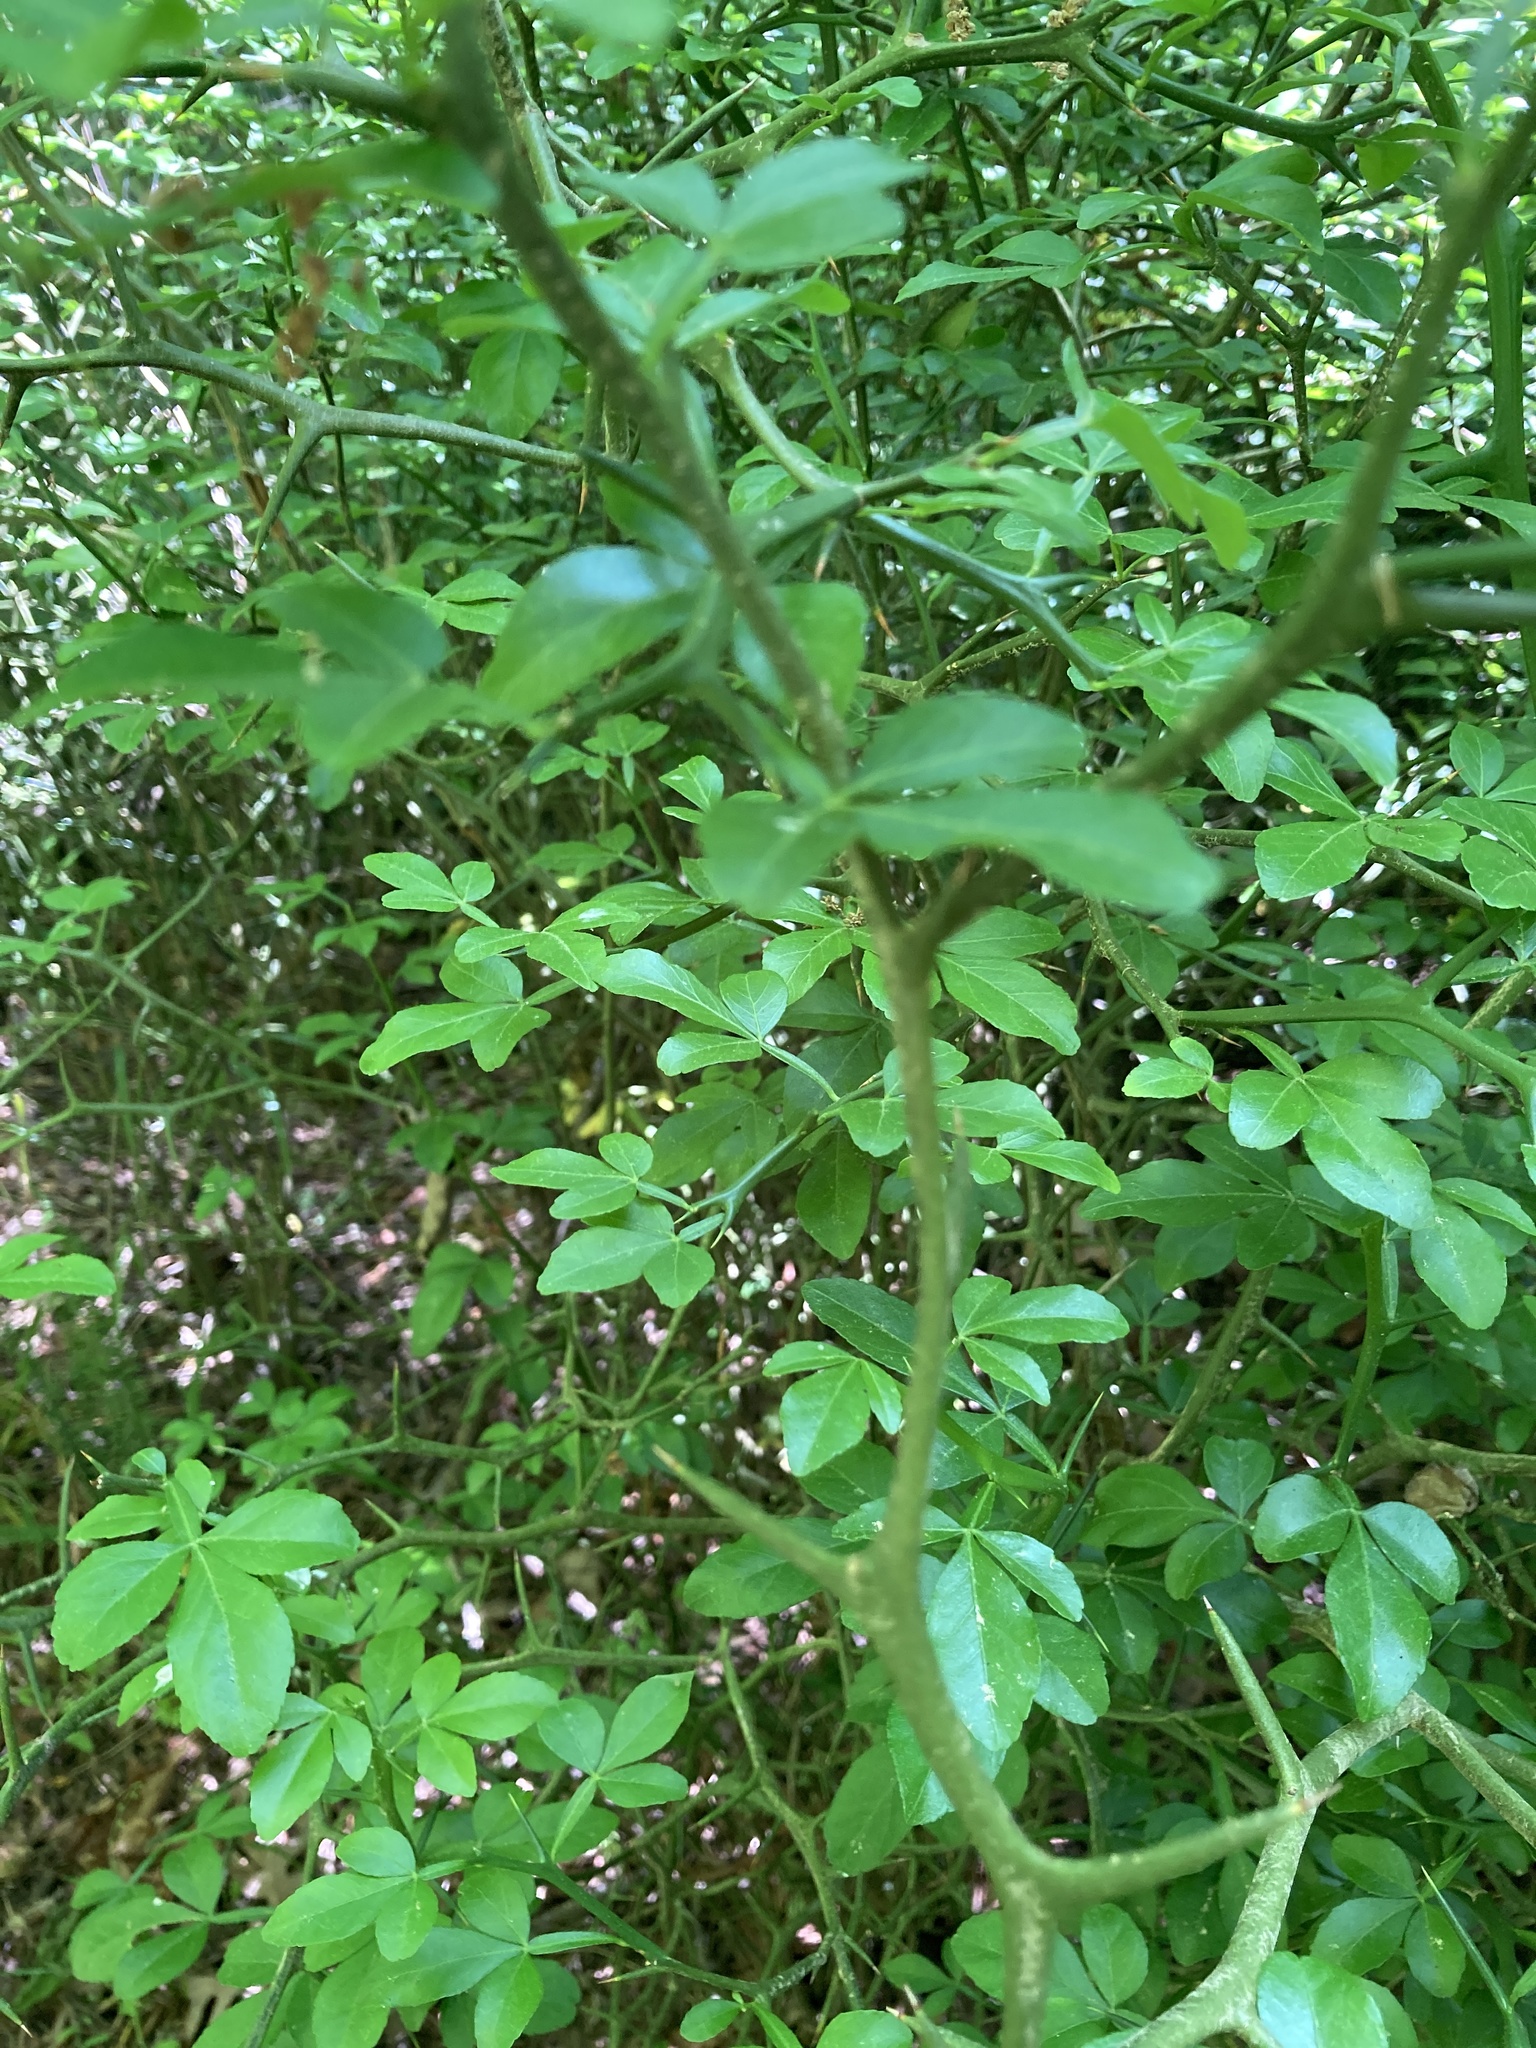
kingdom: Plantae
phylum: Tracheophyta
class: Magnoliopsida
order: Sapindales
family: Rutaceae
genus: Citrus
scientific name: Citrus trifoliata
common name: Japanese bitter-orange
